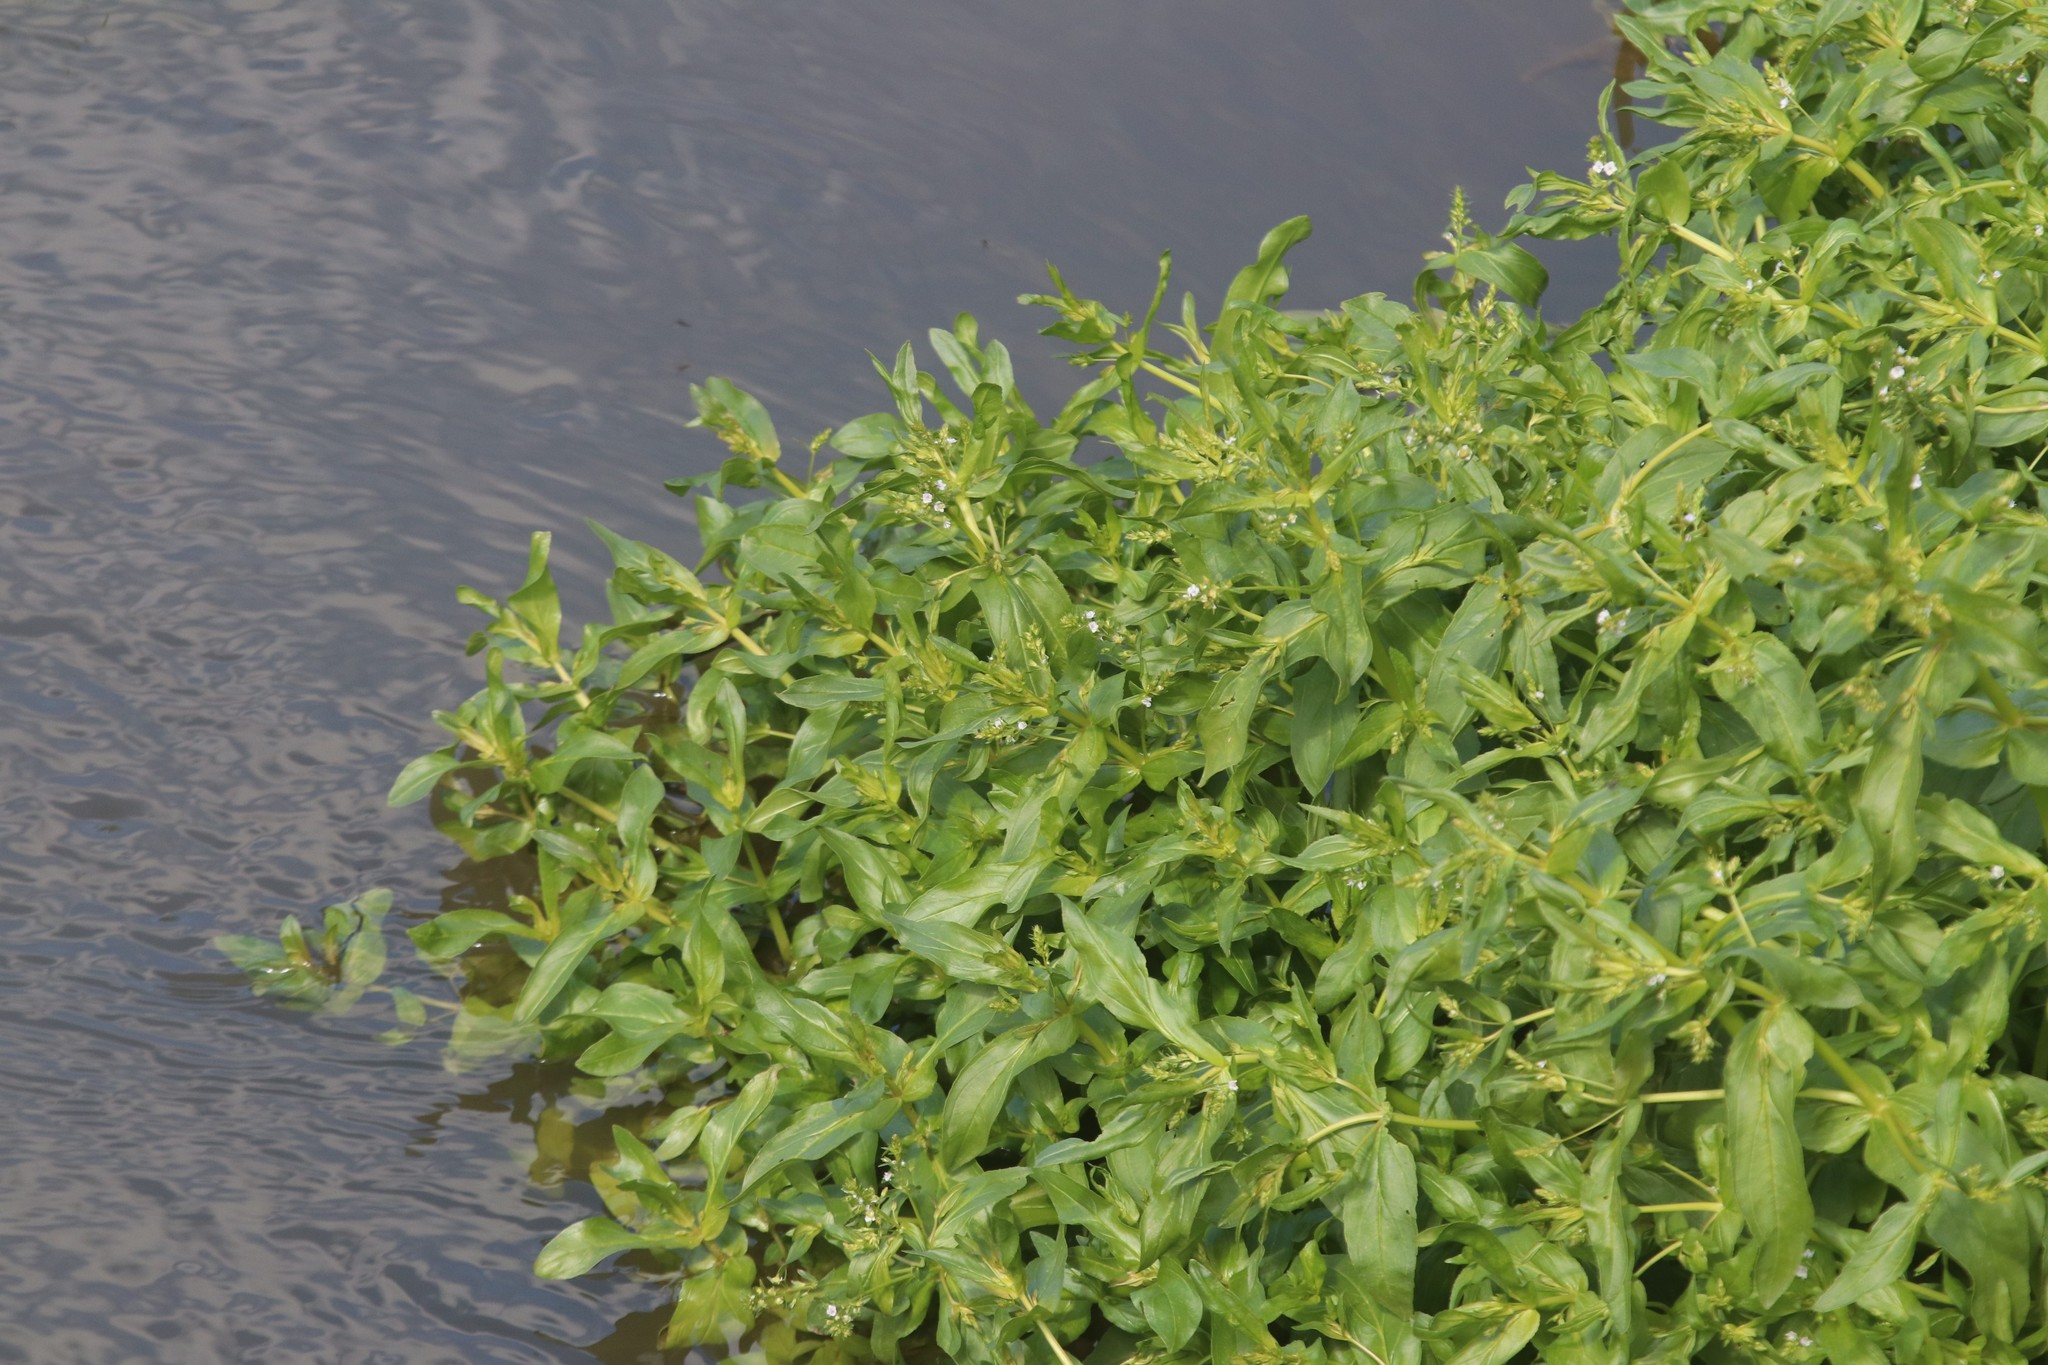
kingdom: Plantae
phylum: Tracheophyta
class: Magnoliopsida
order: Lamiales
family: Plantaginaceae
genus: Veronica
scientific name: Veronica anagallis-aquatica
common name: Water speedwell
